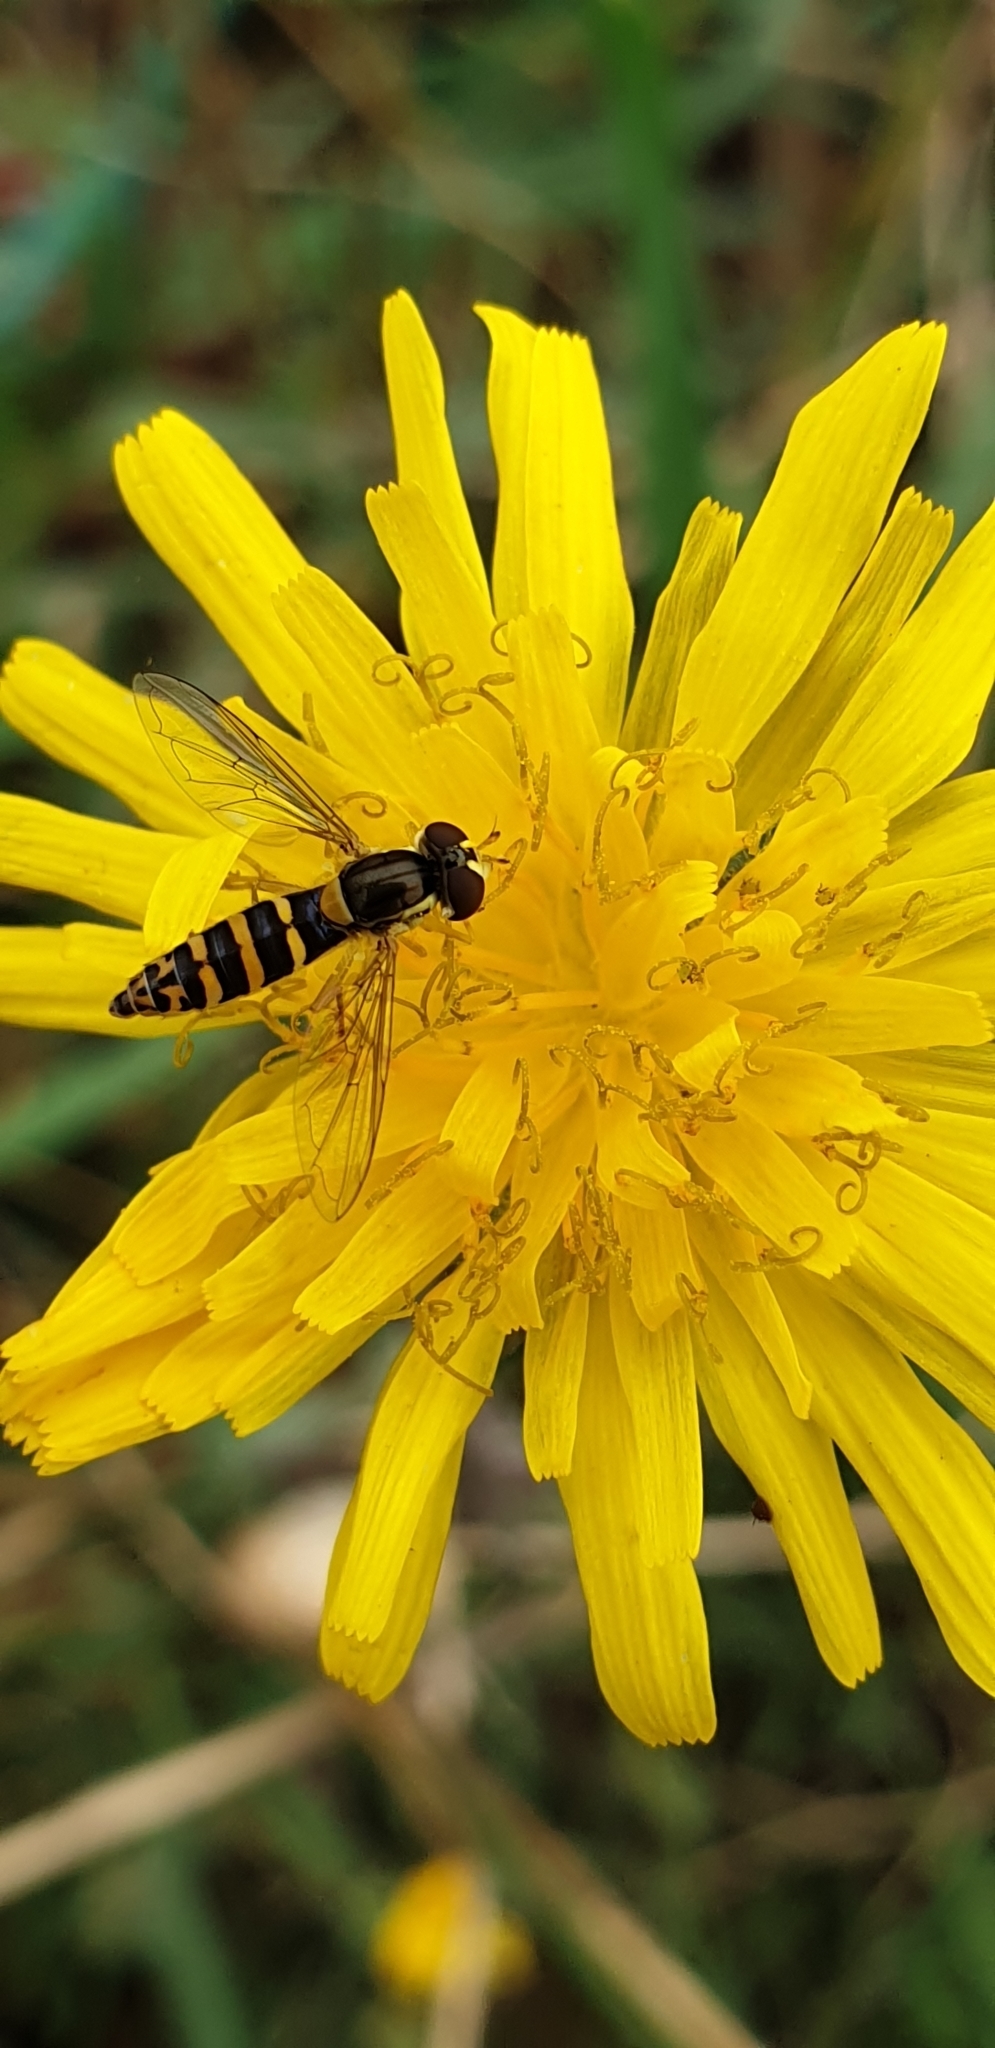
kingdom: Animalia
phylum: Arthropoda
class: Insecta
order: Diptera
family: Syrphidae
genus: Sphaerophoria
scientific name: Sphaerophoria
